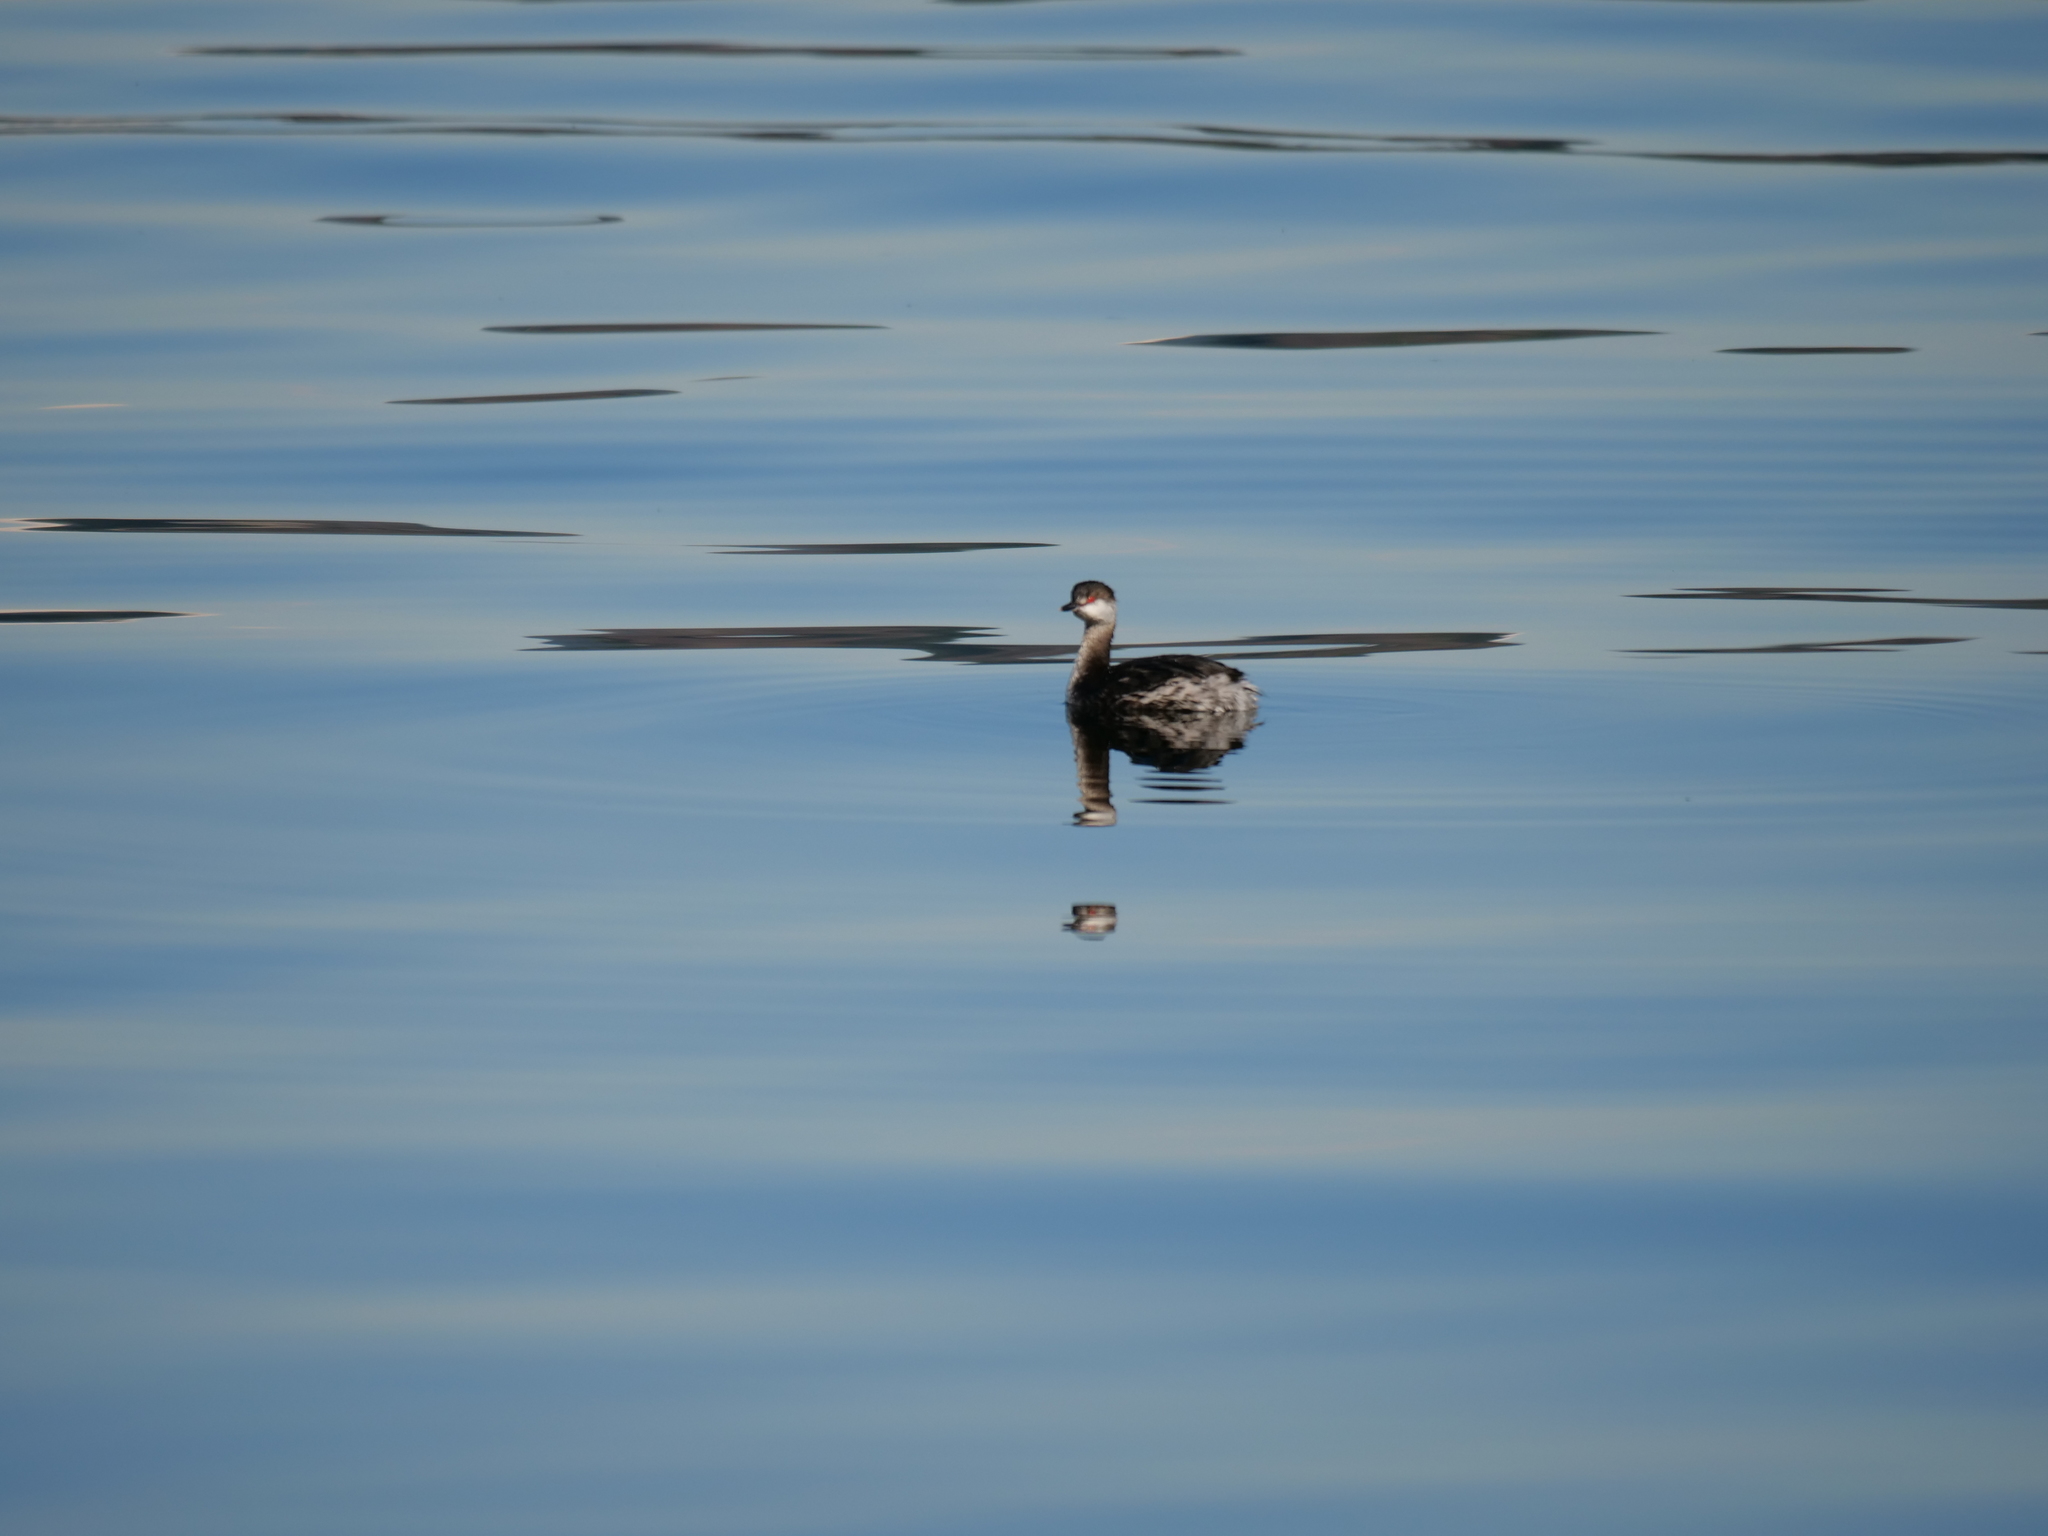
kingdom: Animalia
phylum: Chordata
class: Aves
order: Podicipediformes
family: Podicipedidae
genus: Podiceps
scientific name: Podiceps auritus
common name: Horned grebe
